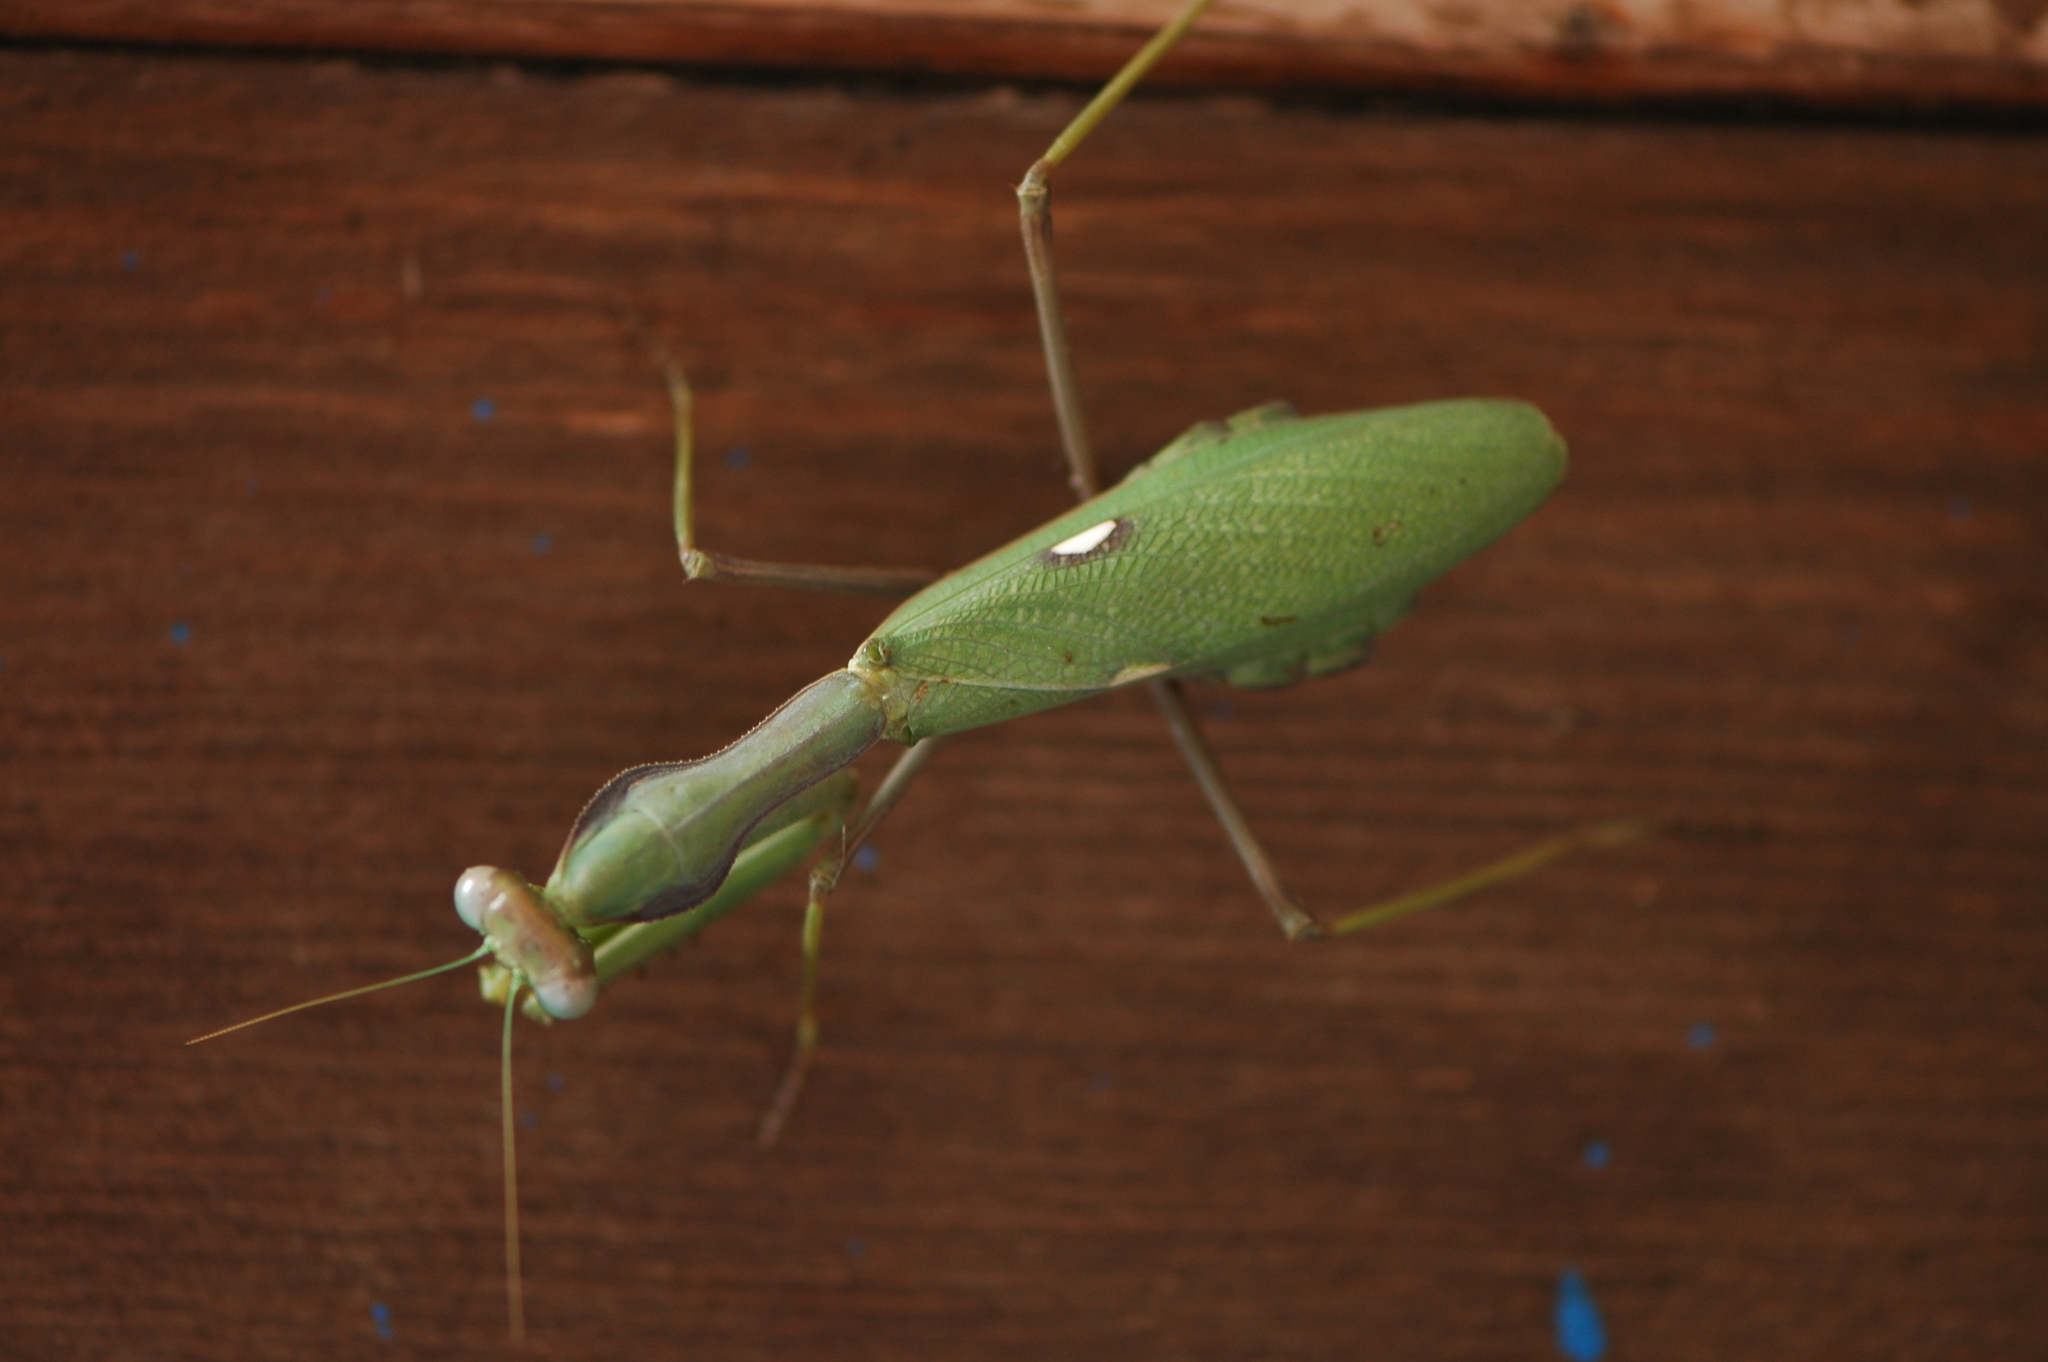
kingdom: Animalia
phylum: Arthropoda
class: Insecta
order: Mantodea
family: Mantidae
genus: Sphodromantis
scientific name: Sphodromantis viridis
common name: Giant african mantis
